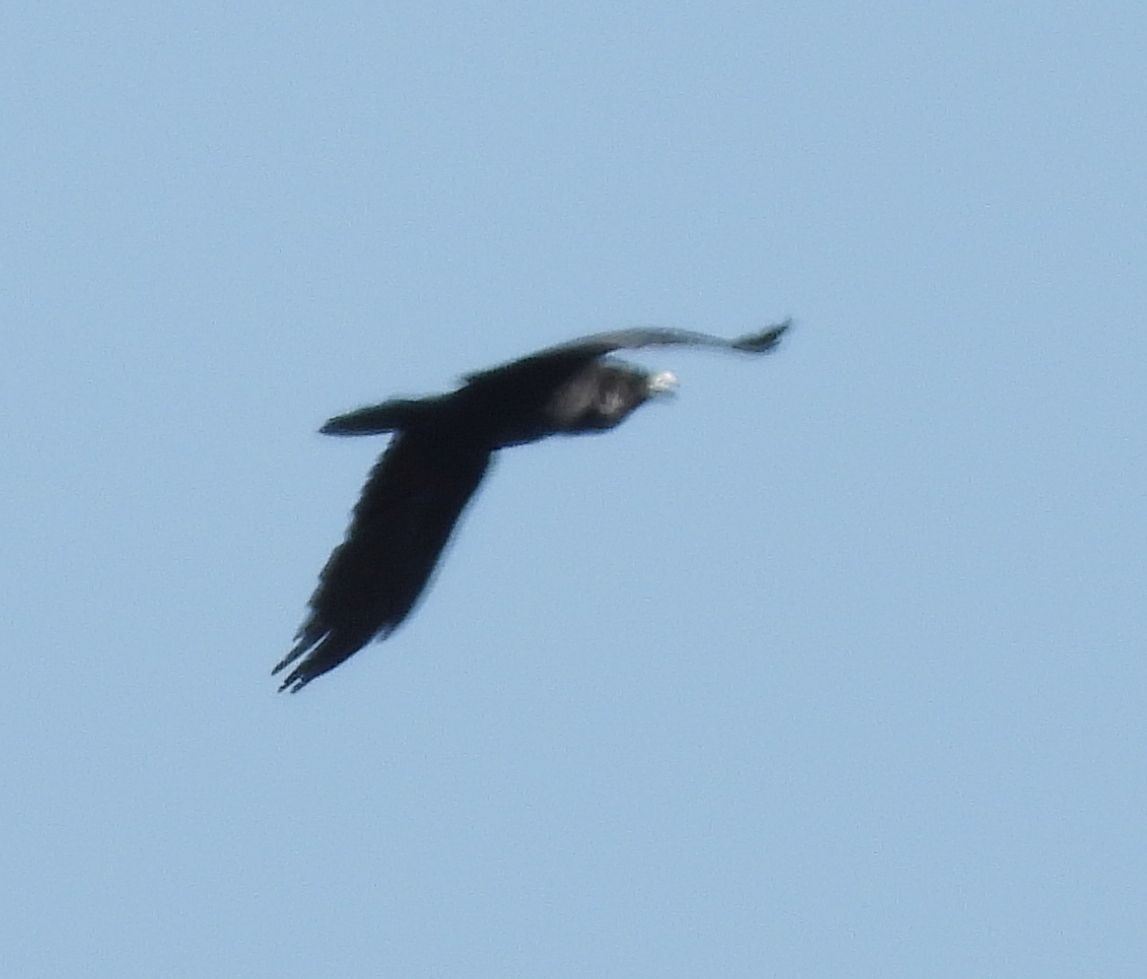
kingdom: Animalia
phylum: Chordata
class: Aves
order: Passeriformes
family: Corvidae
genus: Corvus
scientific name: Corvus corax
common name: Common raven
